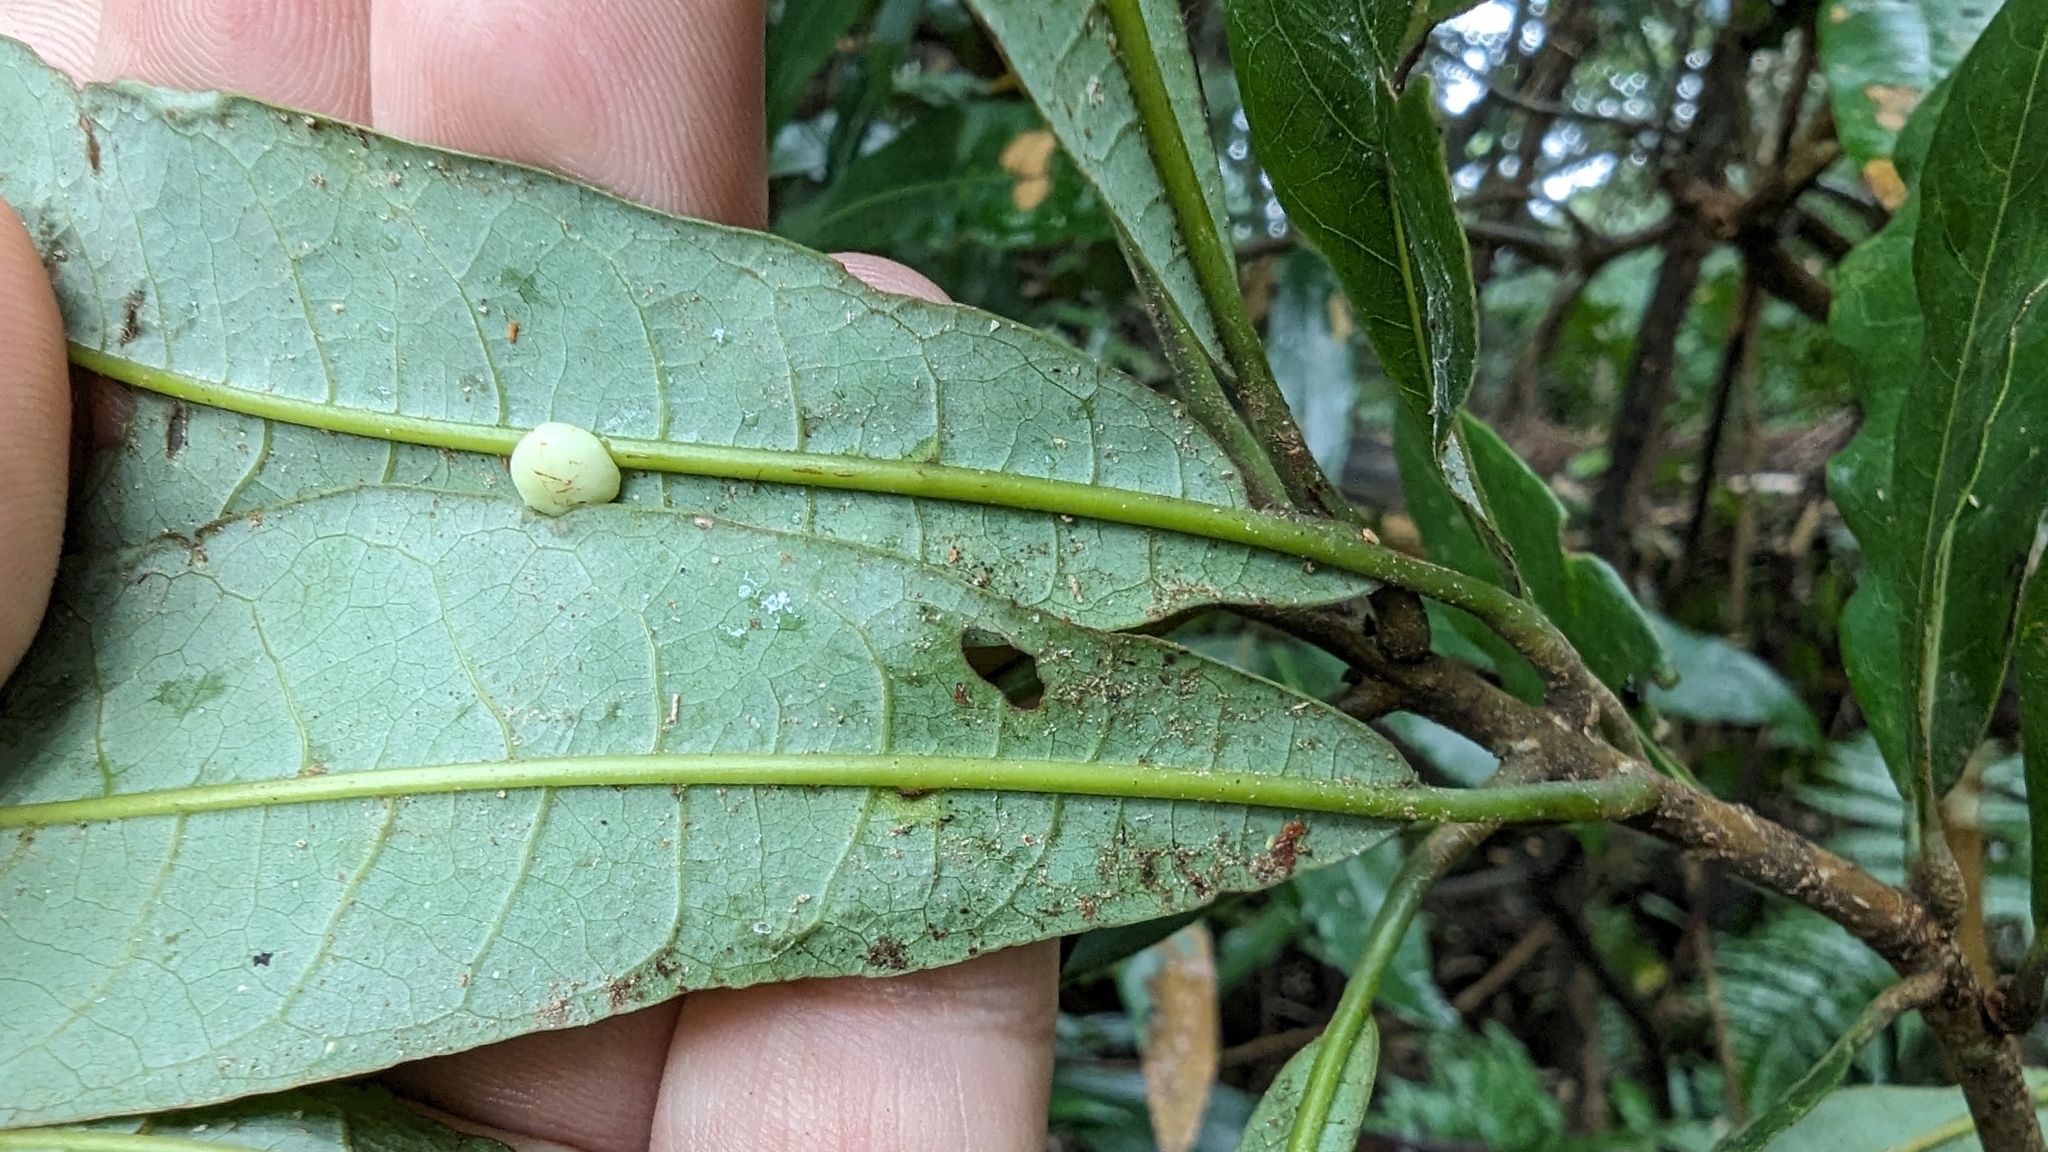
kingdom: Plantae
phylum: Tracheophyta
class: Magnoliopsida
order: Laurales
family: Lauraceae
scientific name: Lauraceae
